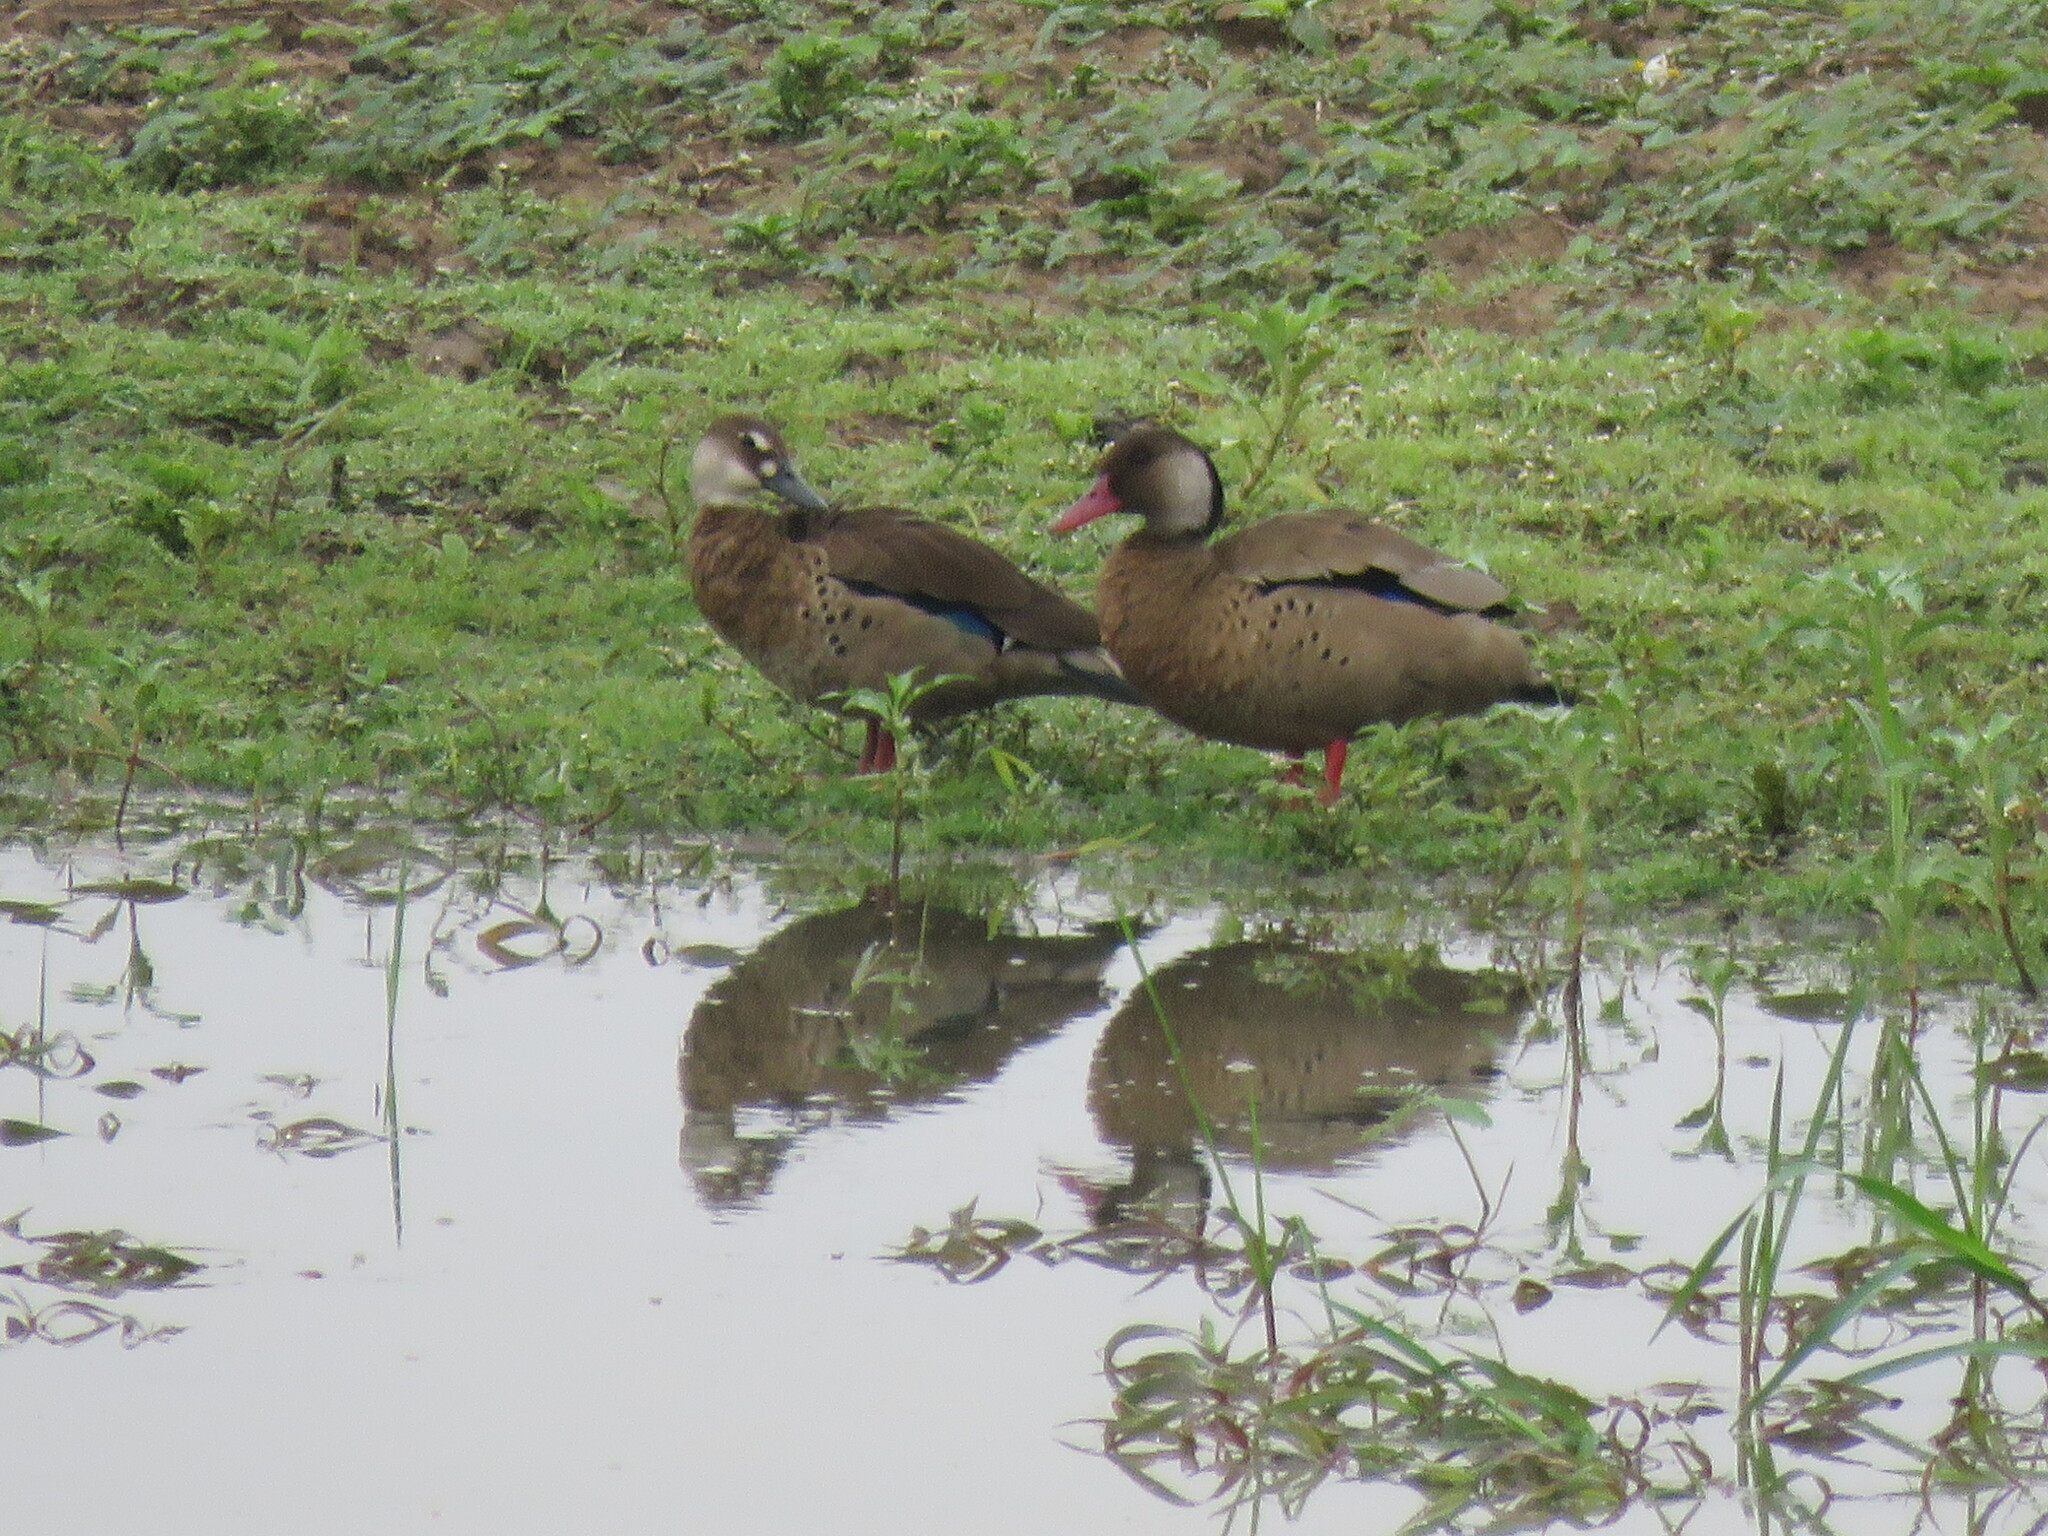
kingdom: Animalia
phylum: Chordata
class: Aves
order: Anseriformes
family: Anatidae
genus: Amazonetta
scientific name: Amazonetta brasiliensis
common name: Brazilian teal
